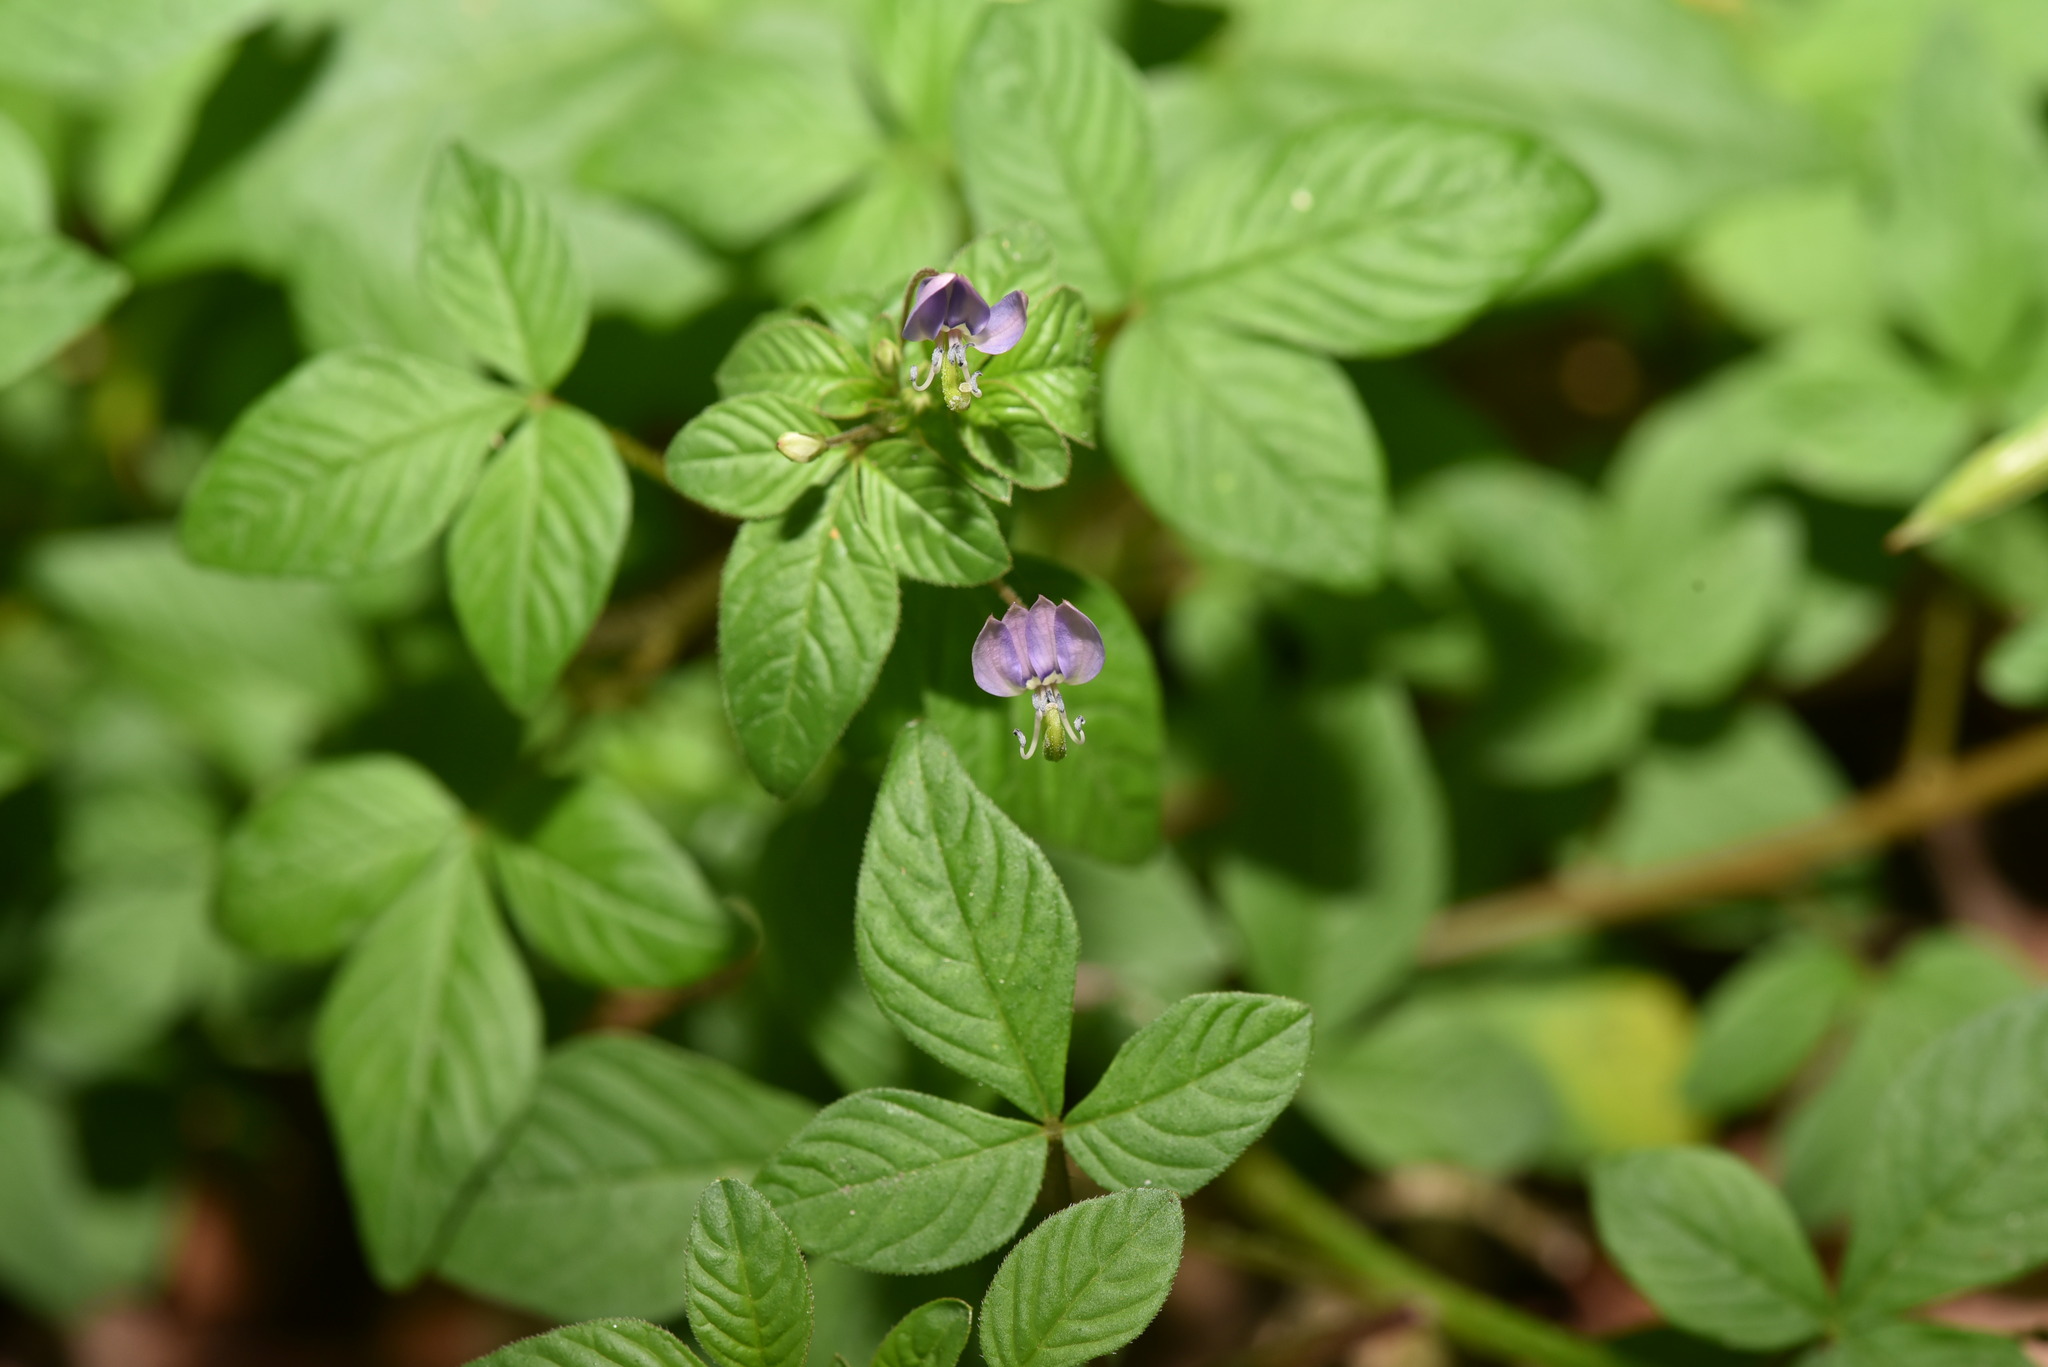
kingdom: Plantae
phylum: Tracheophyta
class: Magnoliopsida
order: Brassicales
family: Cleomaceae
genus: Sieruela
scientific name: Sieruela rutidosperma
